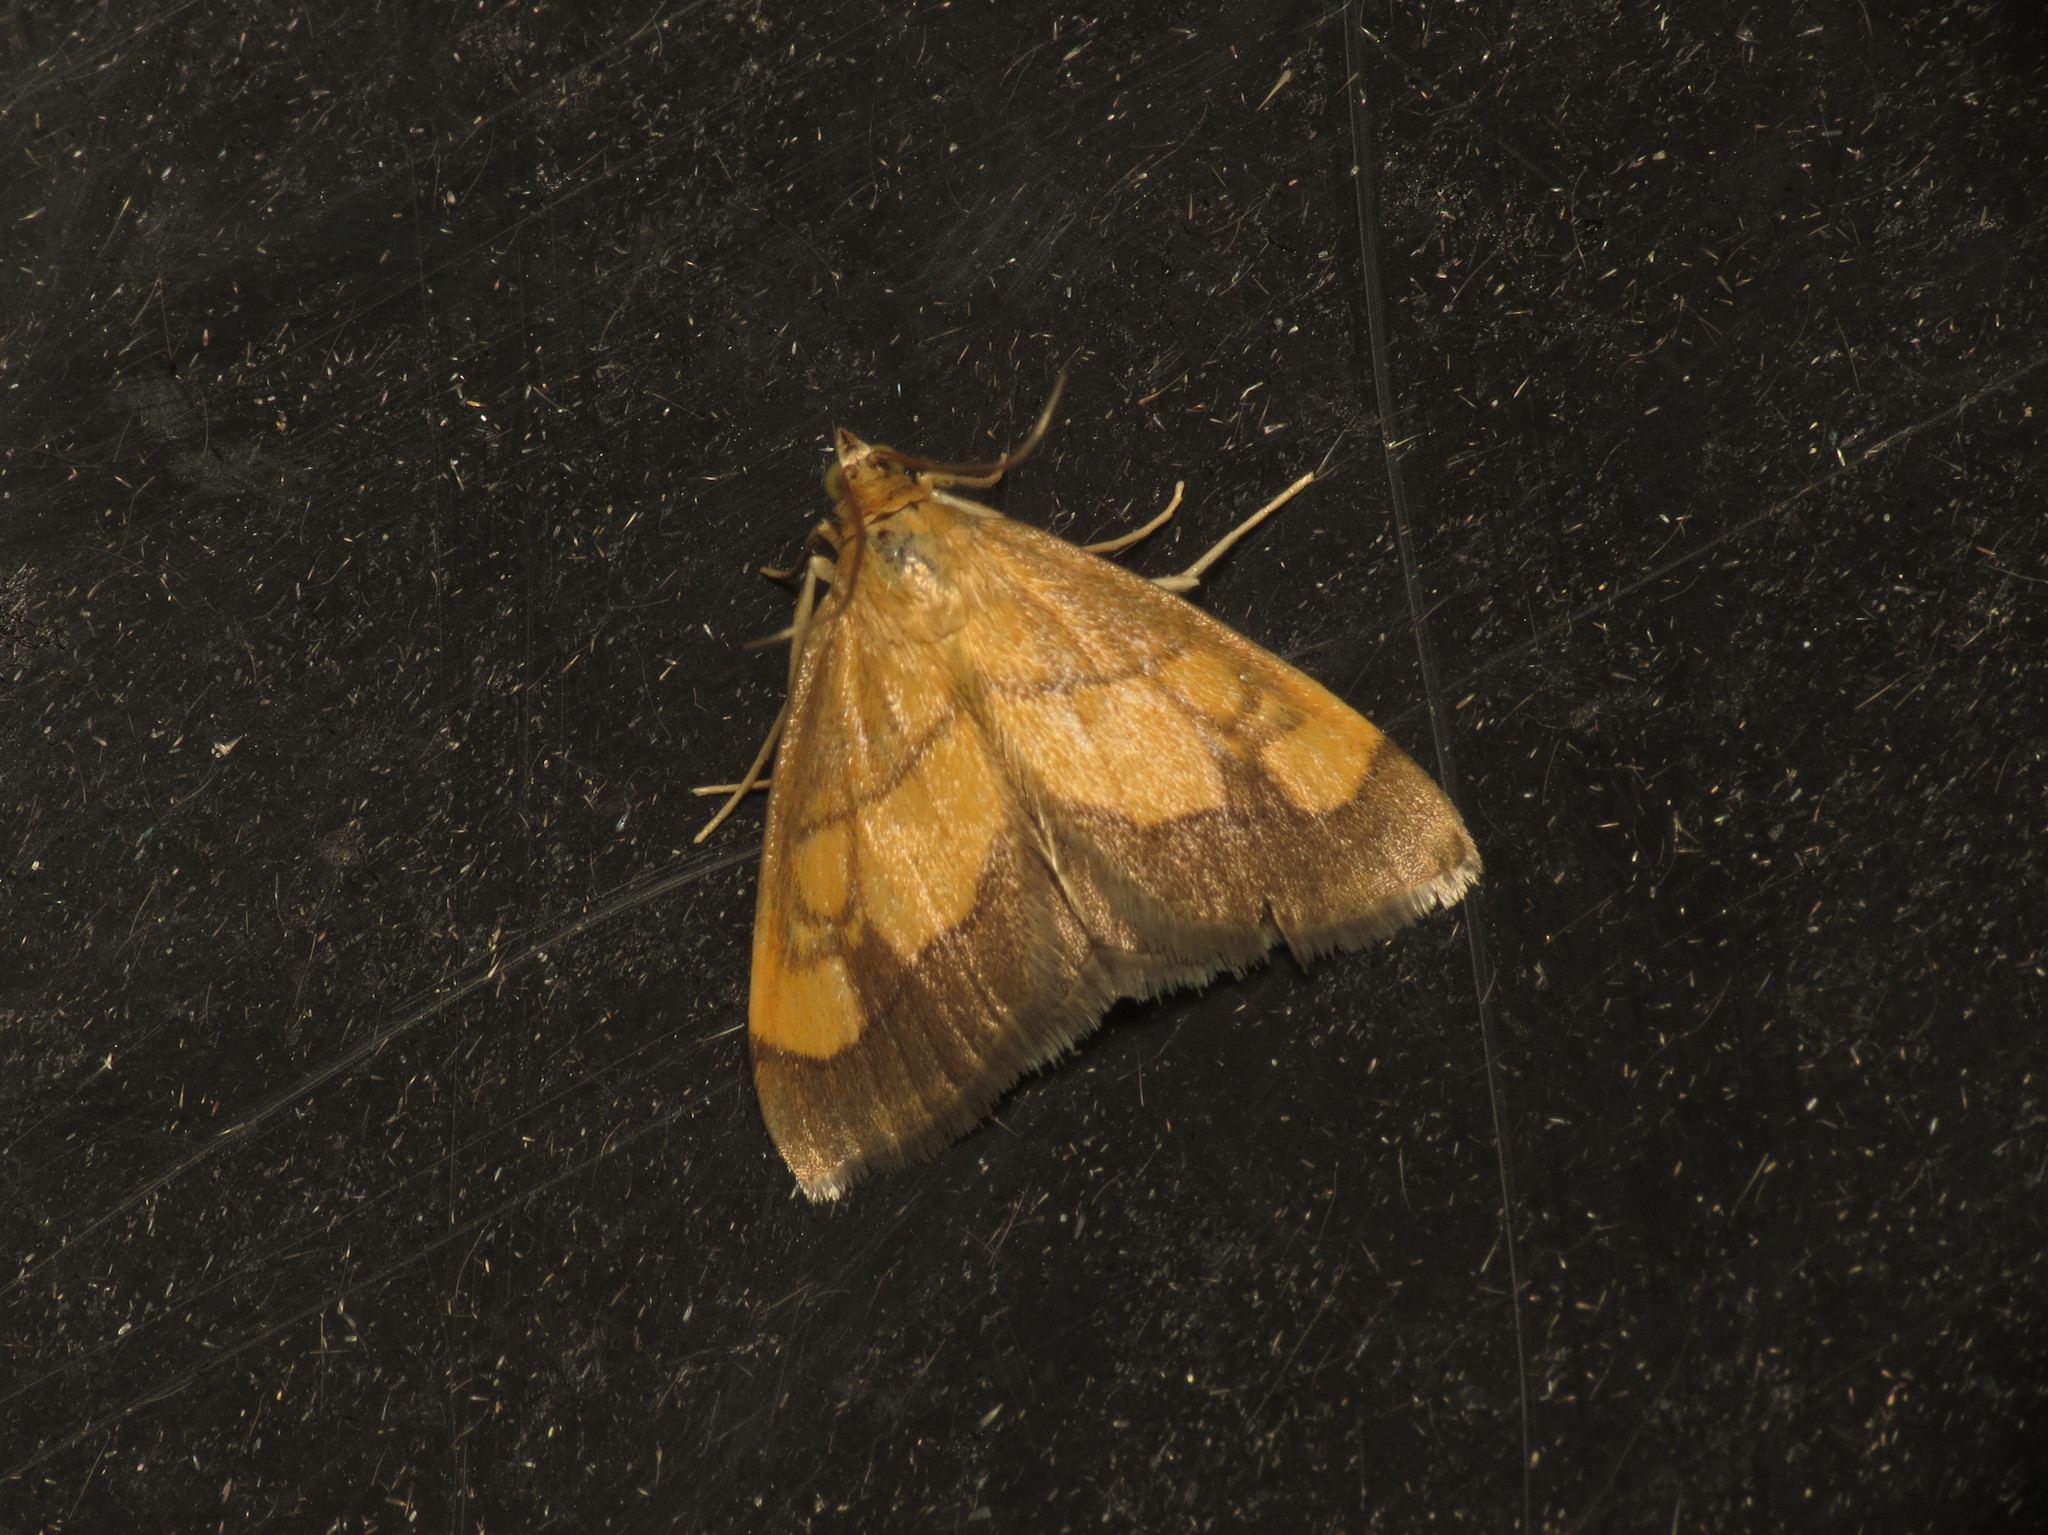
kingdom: Animalia
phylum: Arthropoda
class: Insecta
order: Lepidoptera
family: Crambidae
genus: Evergestis
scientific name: Evergestis limbata
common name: Dark bordered pearl
